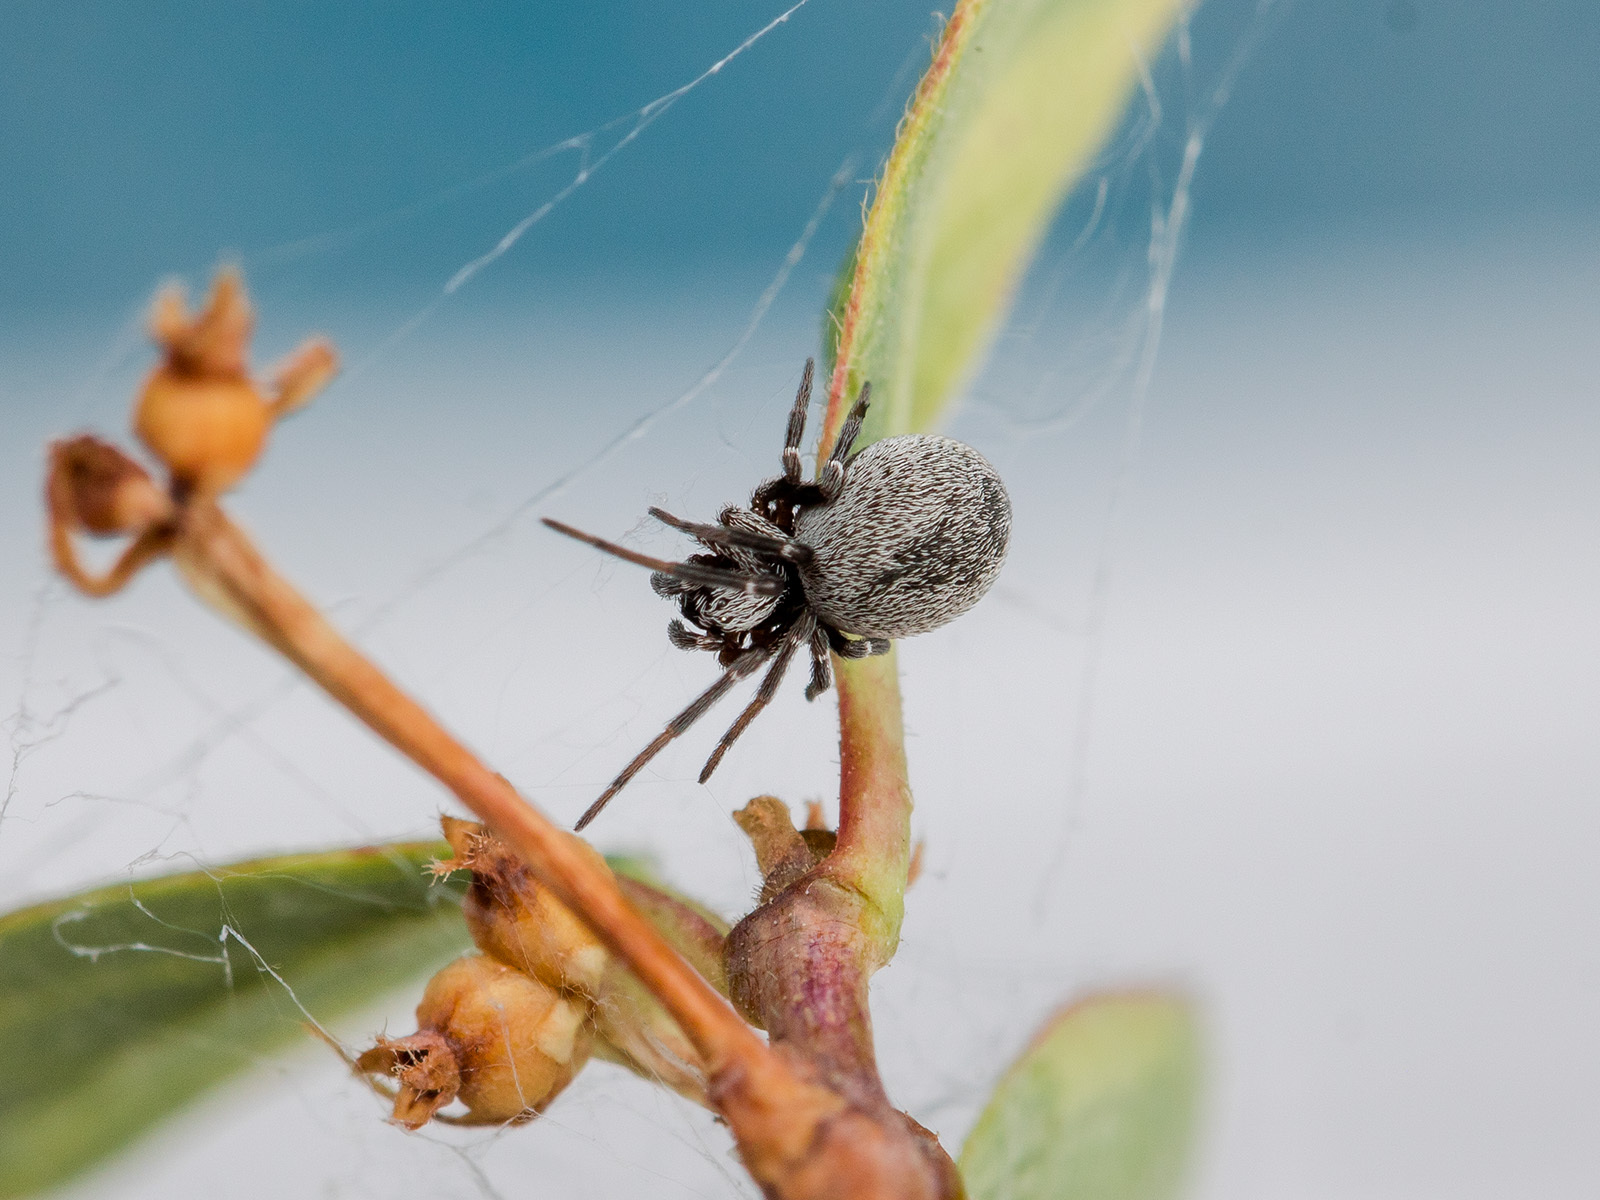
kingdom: Animalia
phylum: Arthropoda
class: Arachnida
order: Araneae
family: Dictynidae
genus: Brigittea
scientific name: Brigittea latens
